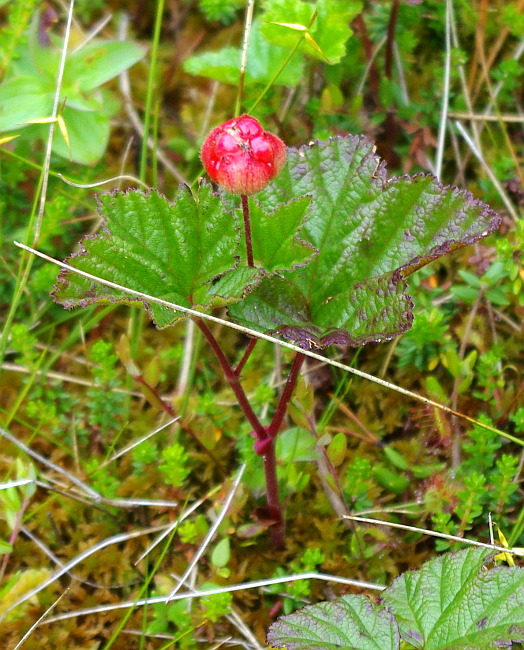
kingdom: Plantae
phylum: Tracheophyta
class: Magnoliopsida
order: Rosales
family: Rosaceae
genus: Rubus
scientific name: Rubus chamaemorus
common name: Cloudberry
